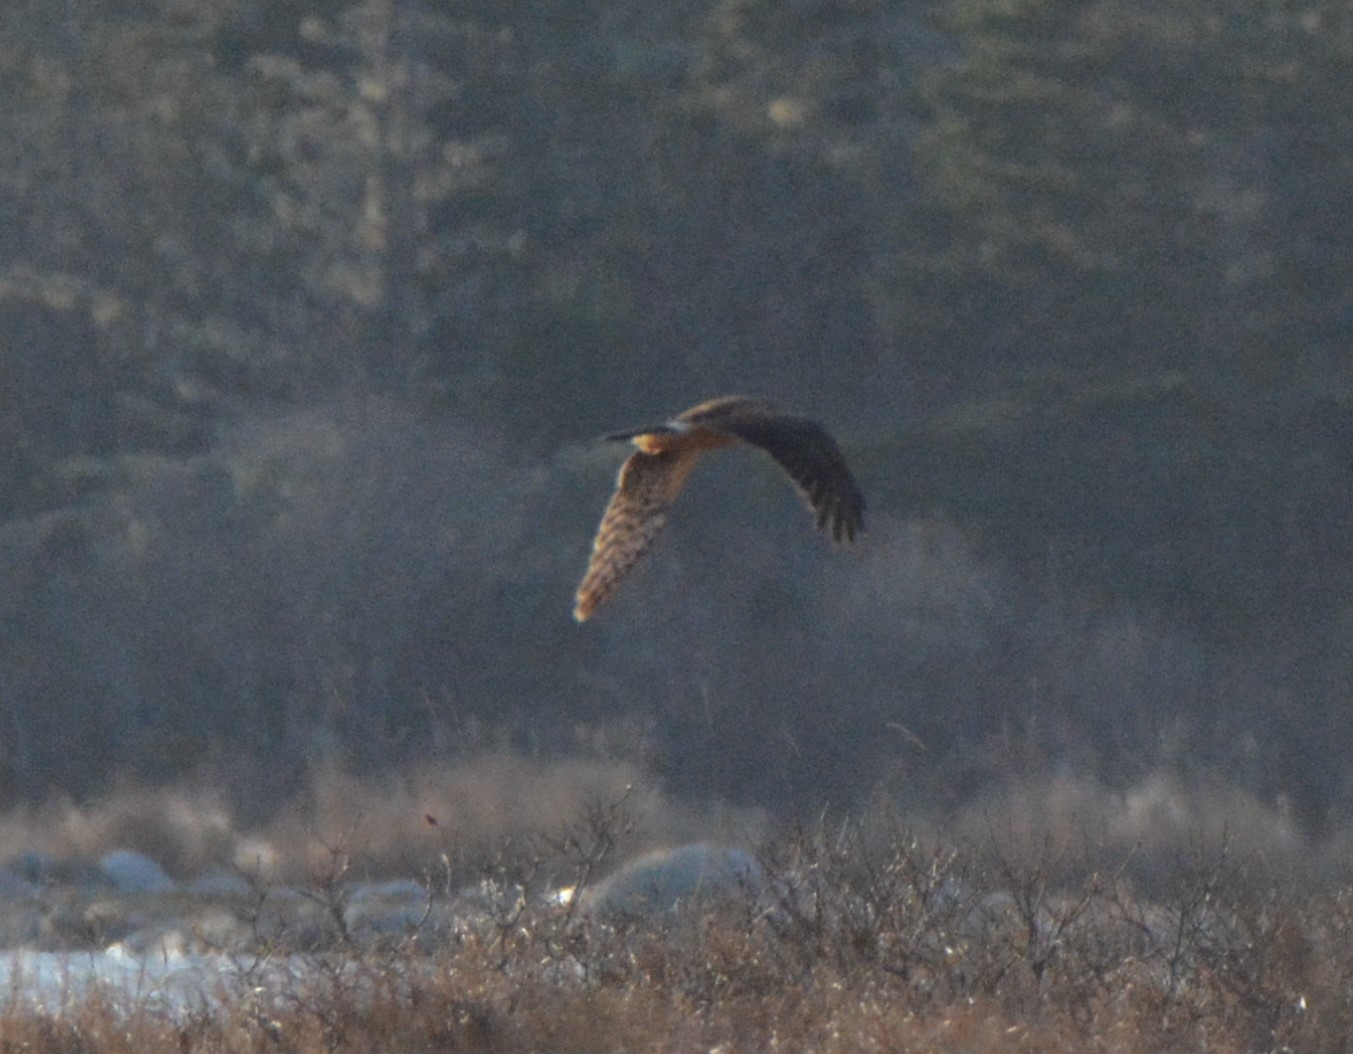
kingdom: Animalia
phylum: Chordata
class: Aves
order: Accipitriformes
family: Accipitridae
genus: Circus
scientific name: Circus cyaneus
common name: Hen harrier
